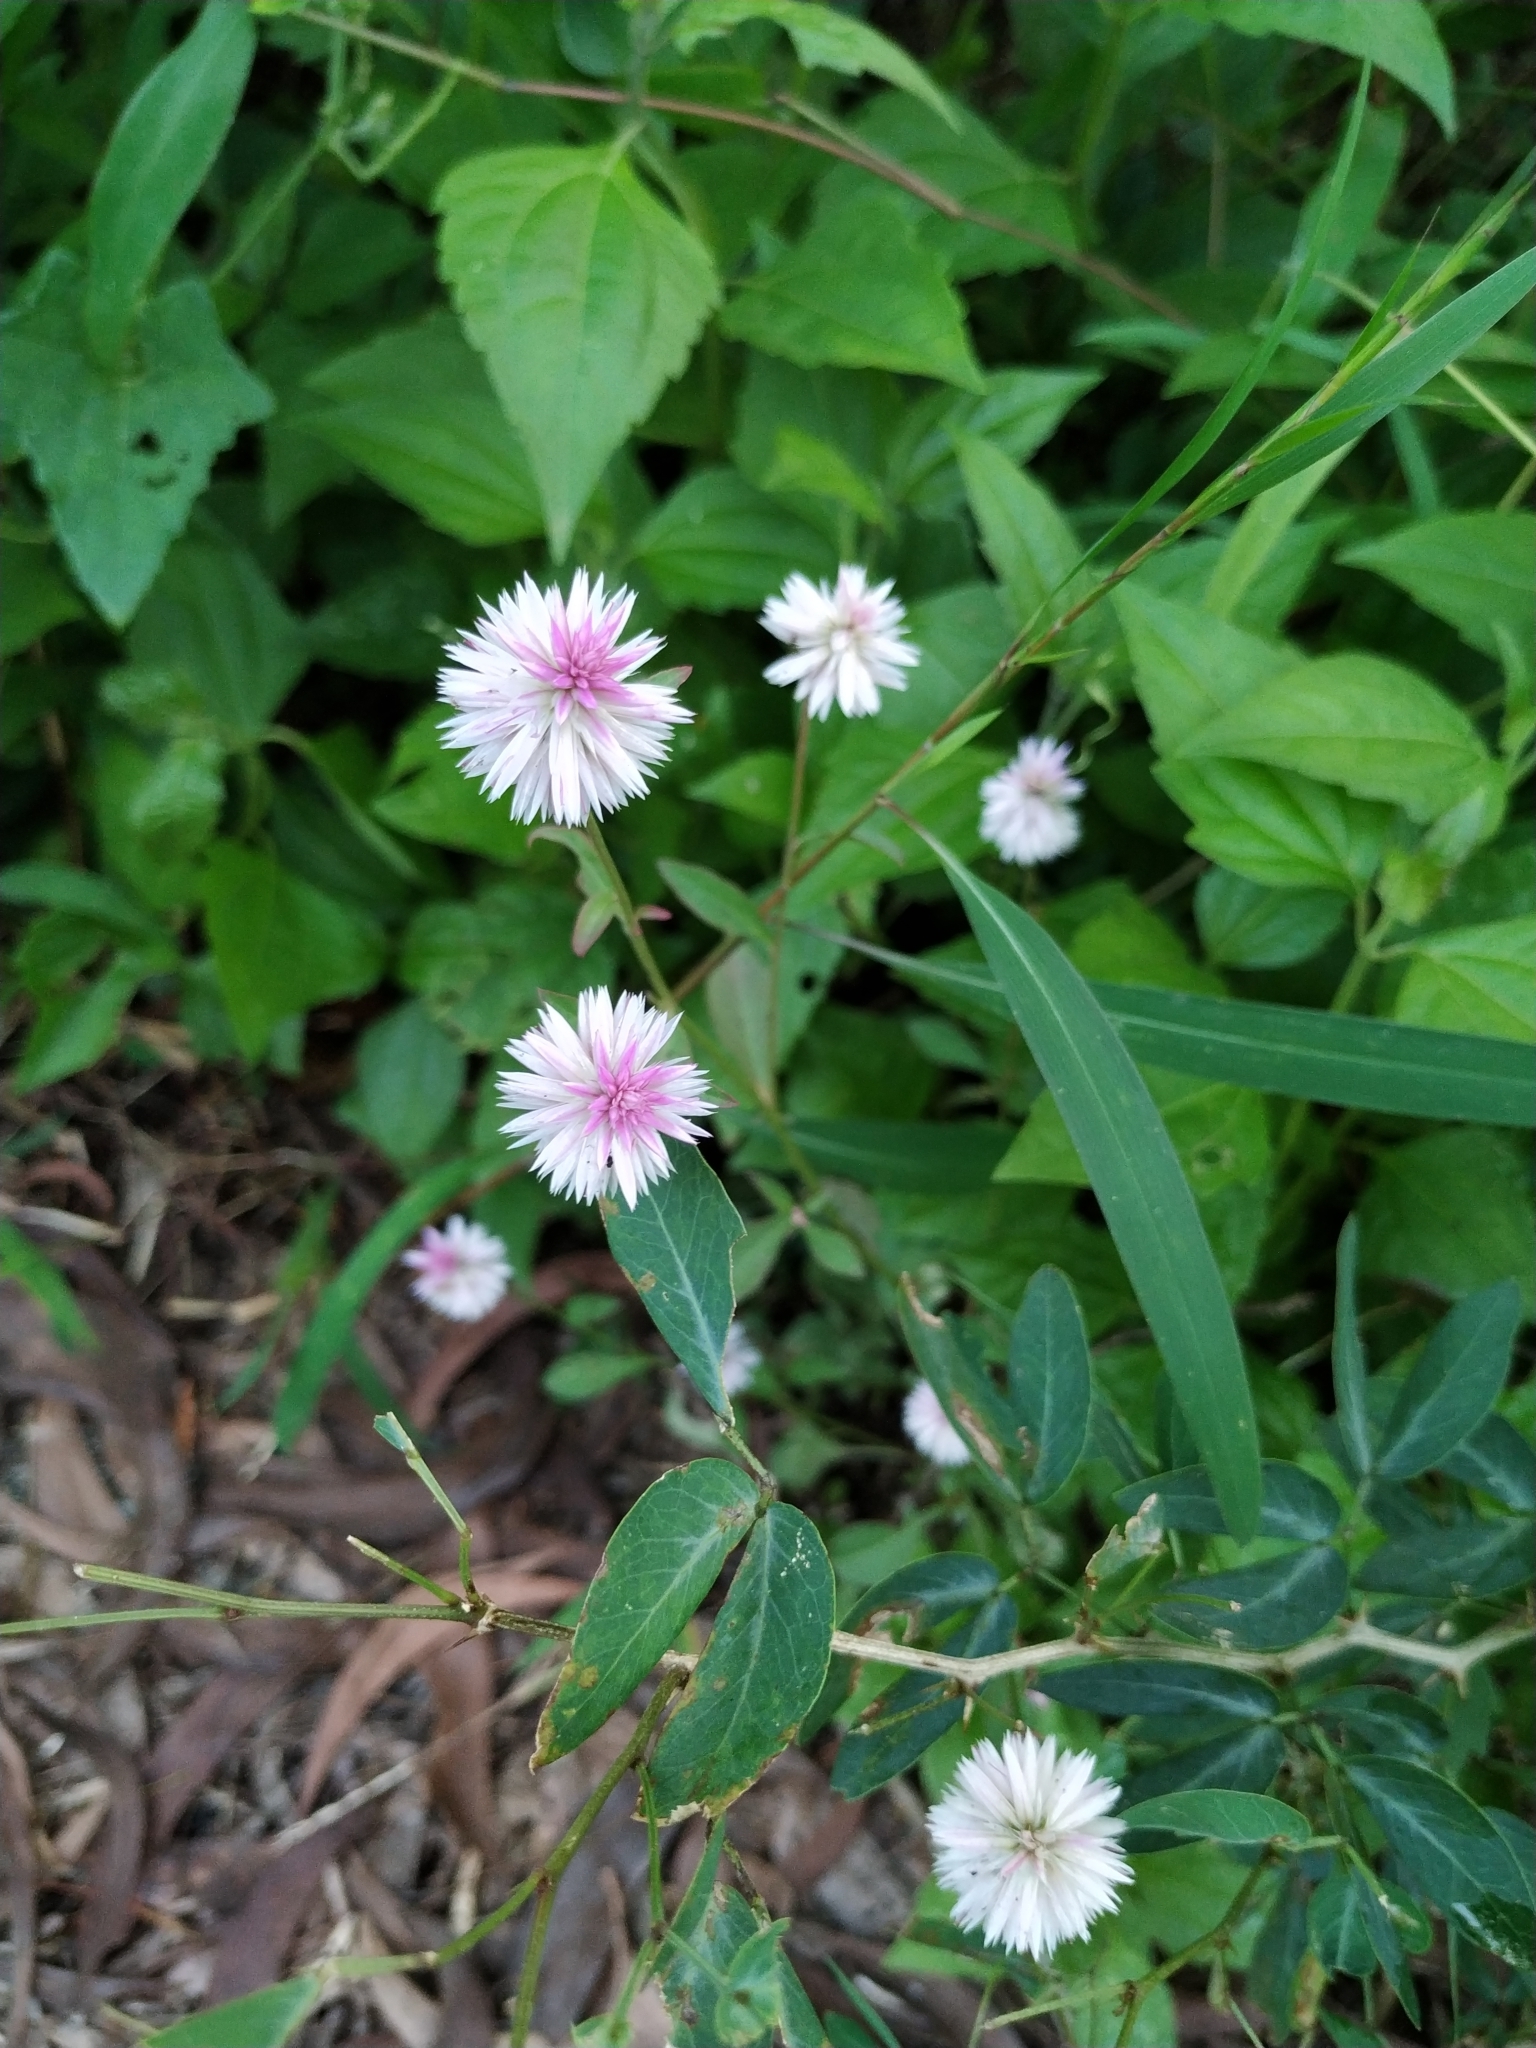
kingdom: Plantae
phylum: Tracheophyta
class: Magnoliopsida
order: Caryophyllales
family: Amaranthaceae
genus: Celosia
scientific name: Celosia argentea
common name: Feather cockscomb
